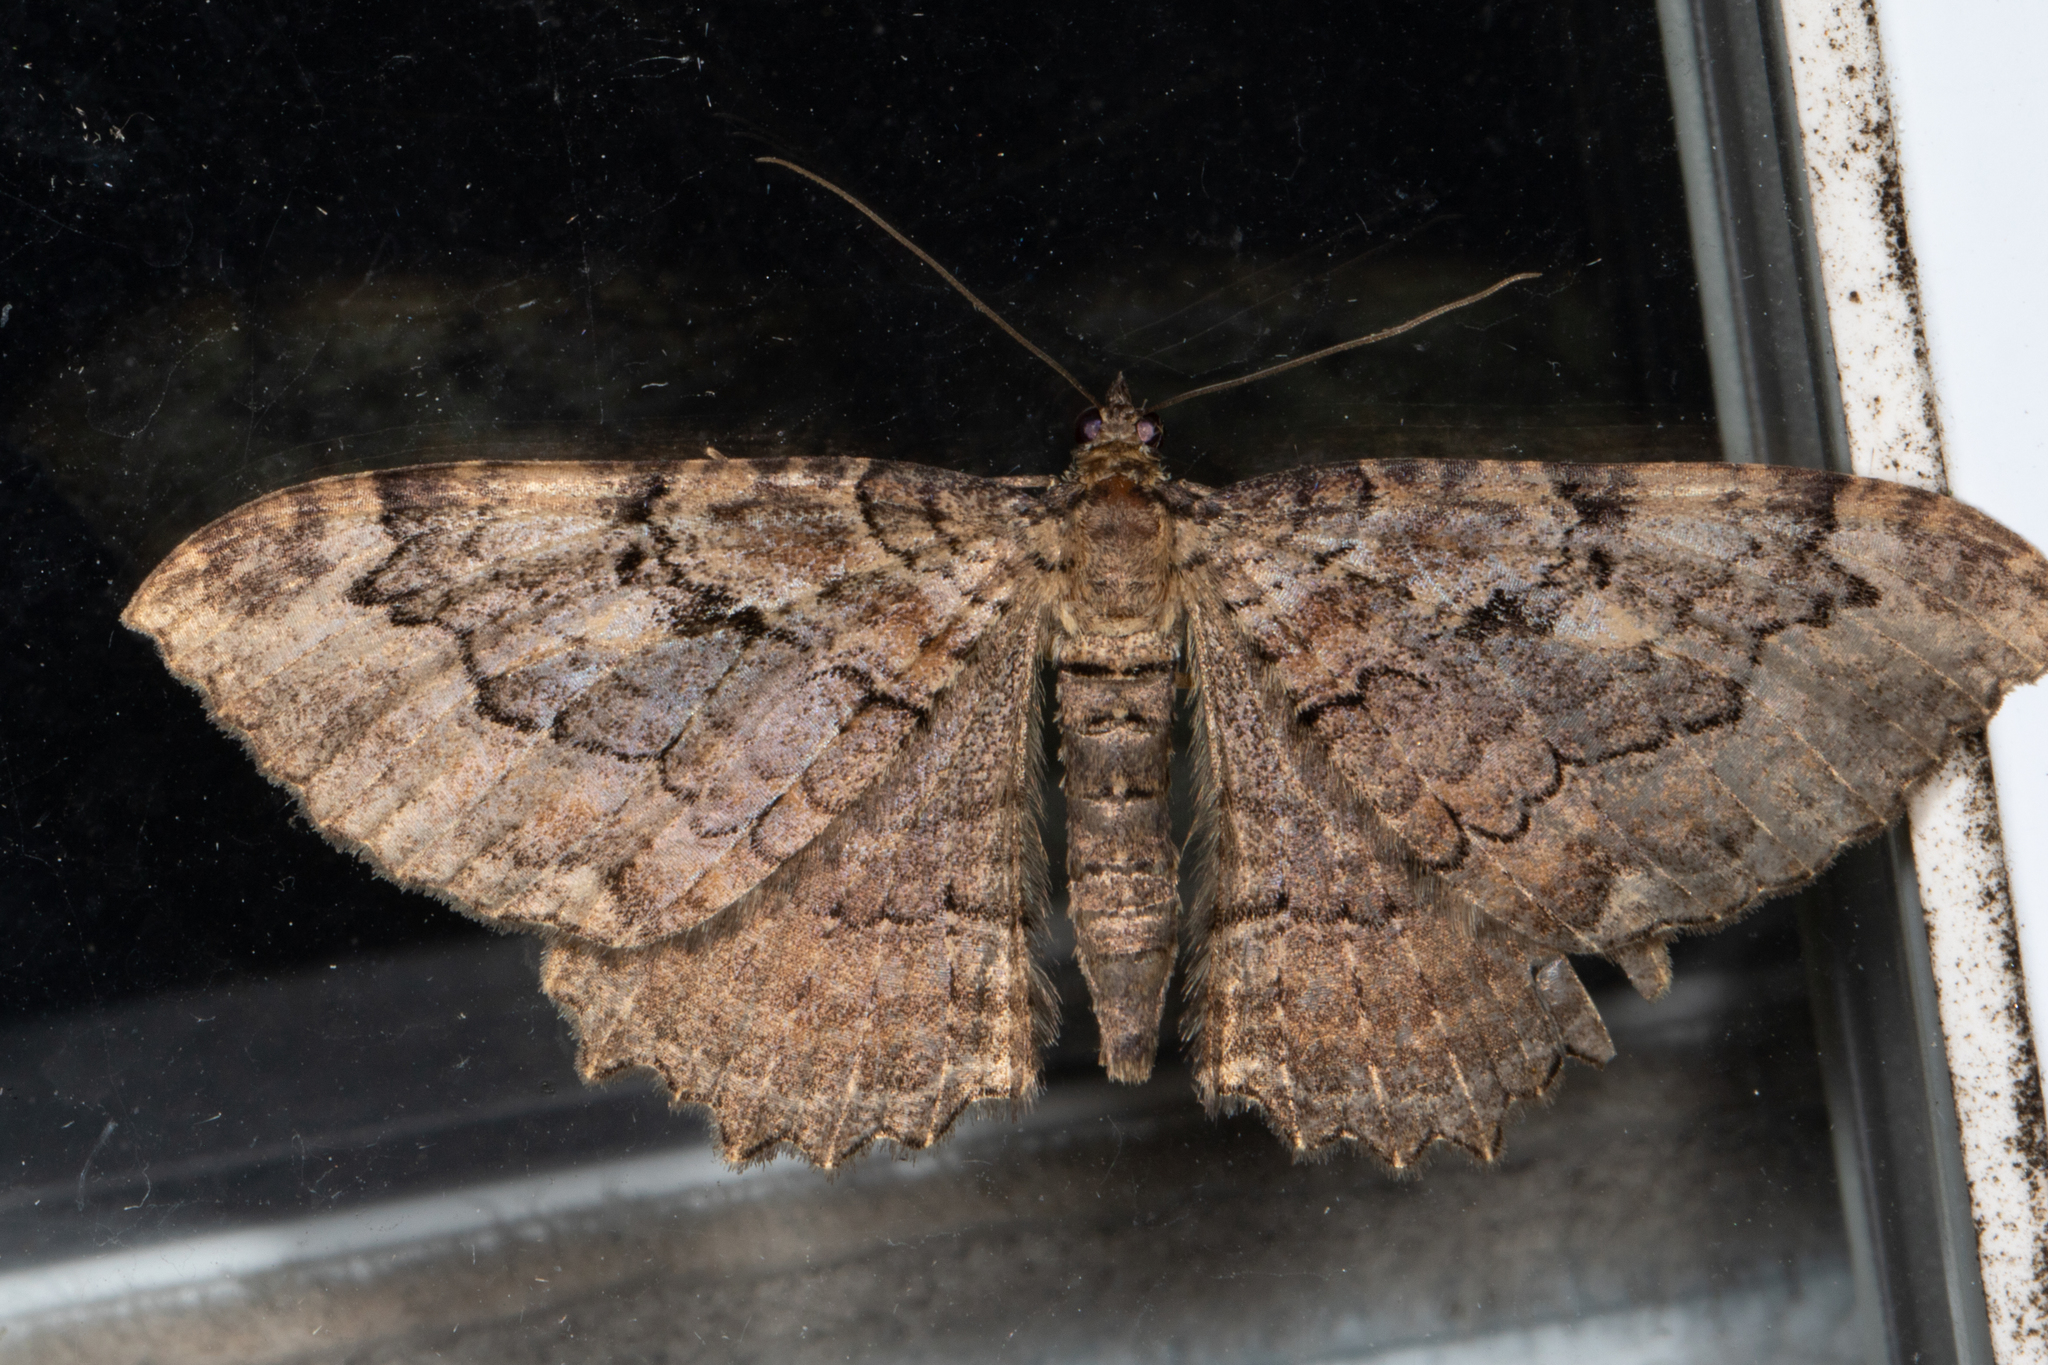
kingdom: Animalia
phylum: Arthropoda
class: Insecta
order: Lepidoptera
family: Geometridae
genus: Rheumaptera
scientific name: Rheumaptera
